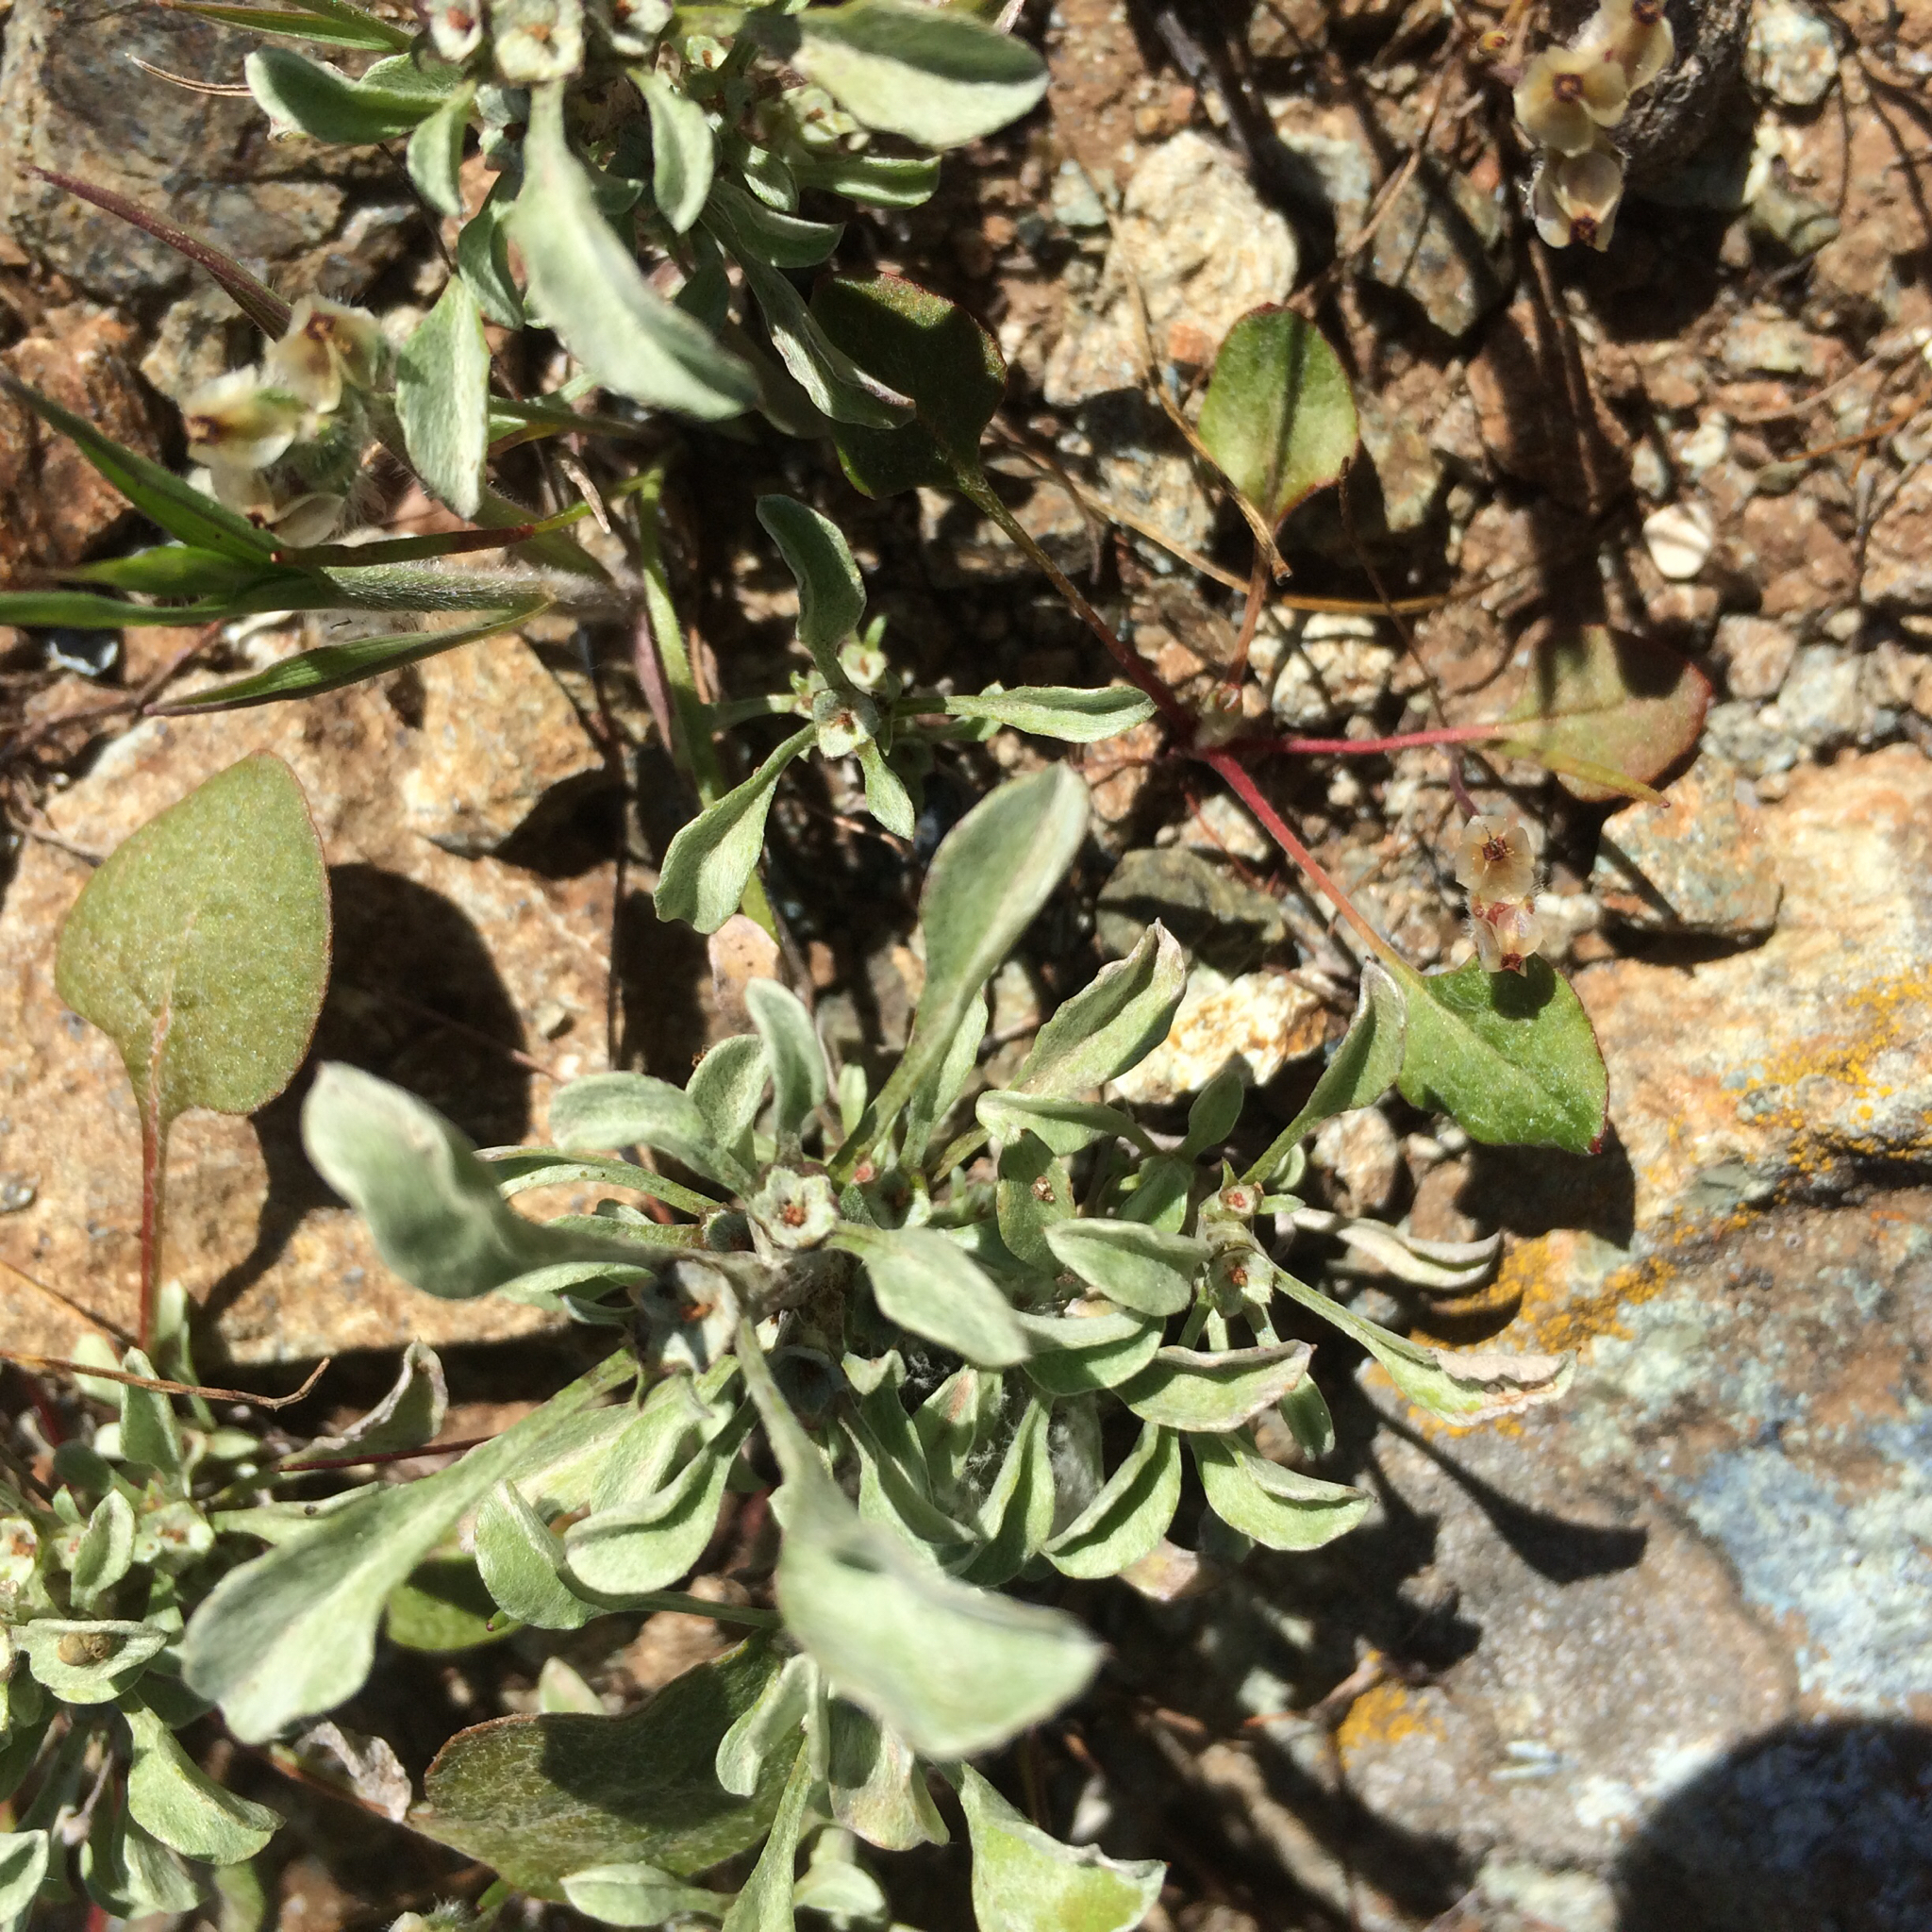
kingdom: Plantae
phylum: Tracheophyta
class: Magnoliopsida
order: Asterales
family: Asteraceae
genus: Hesperevax
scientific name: Hesperevax sparsiflora
